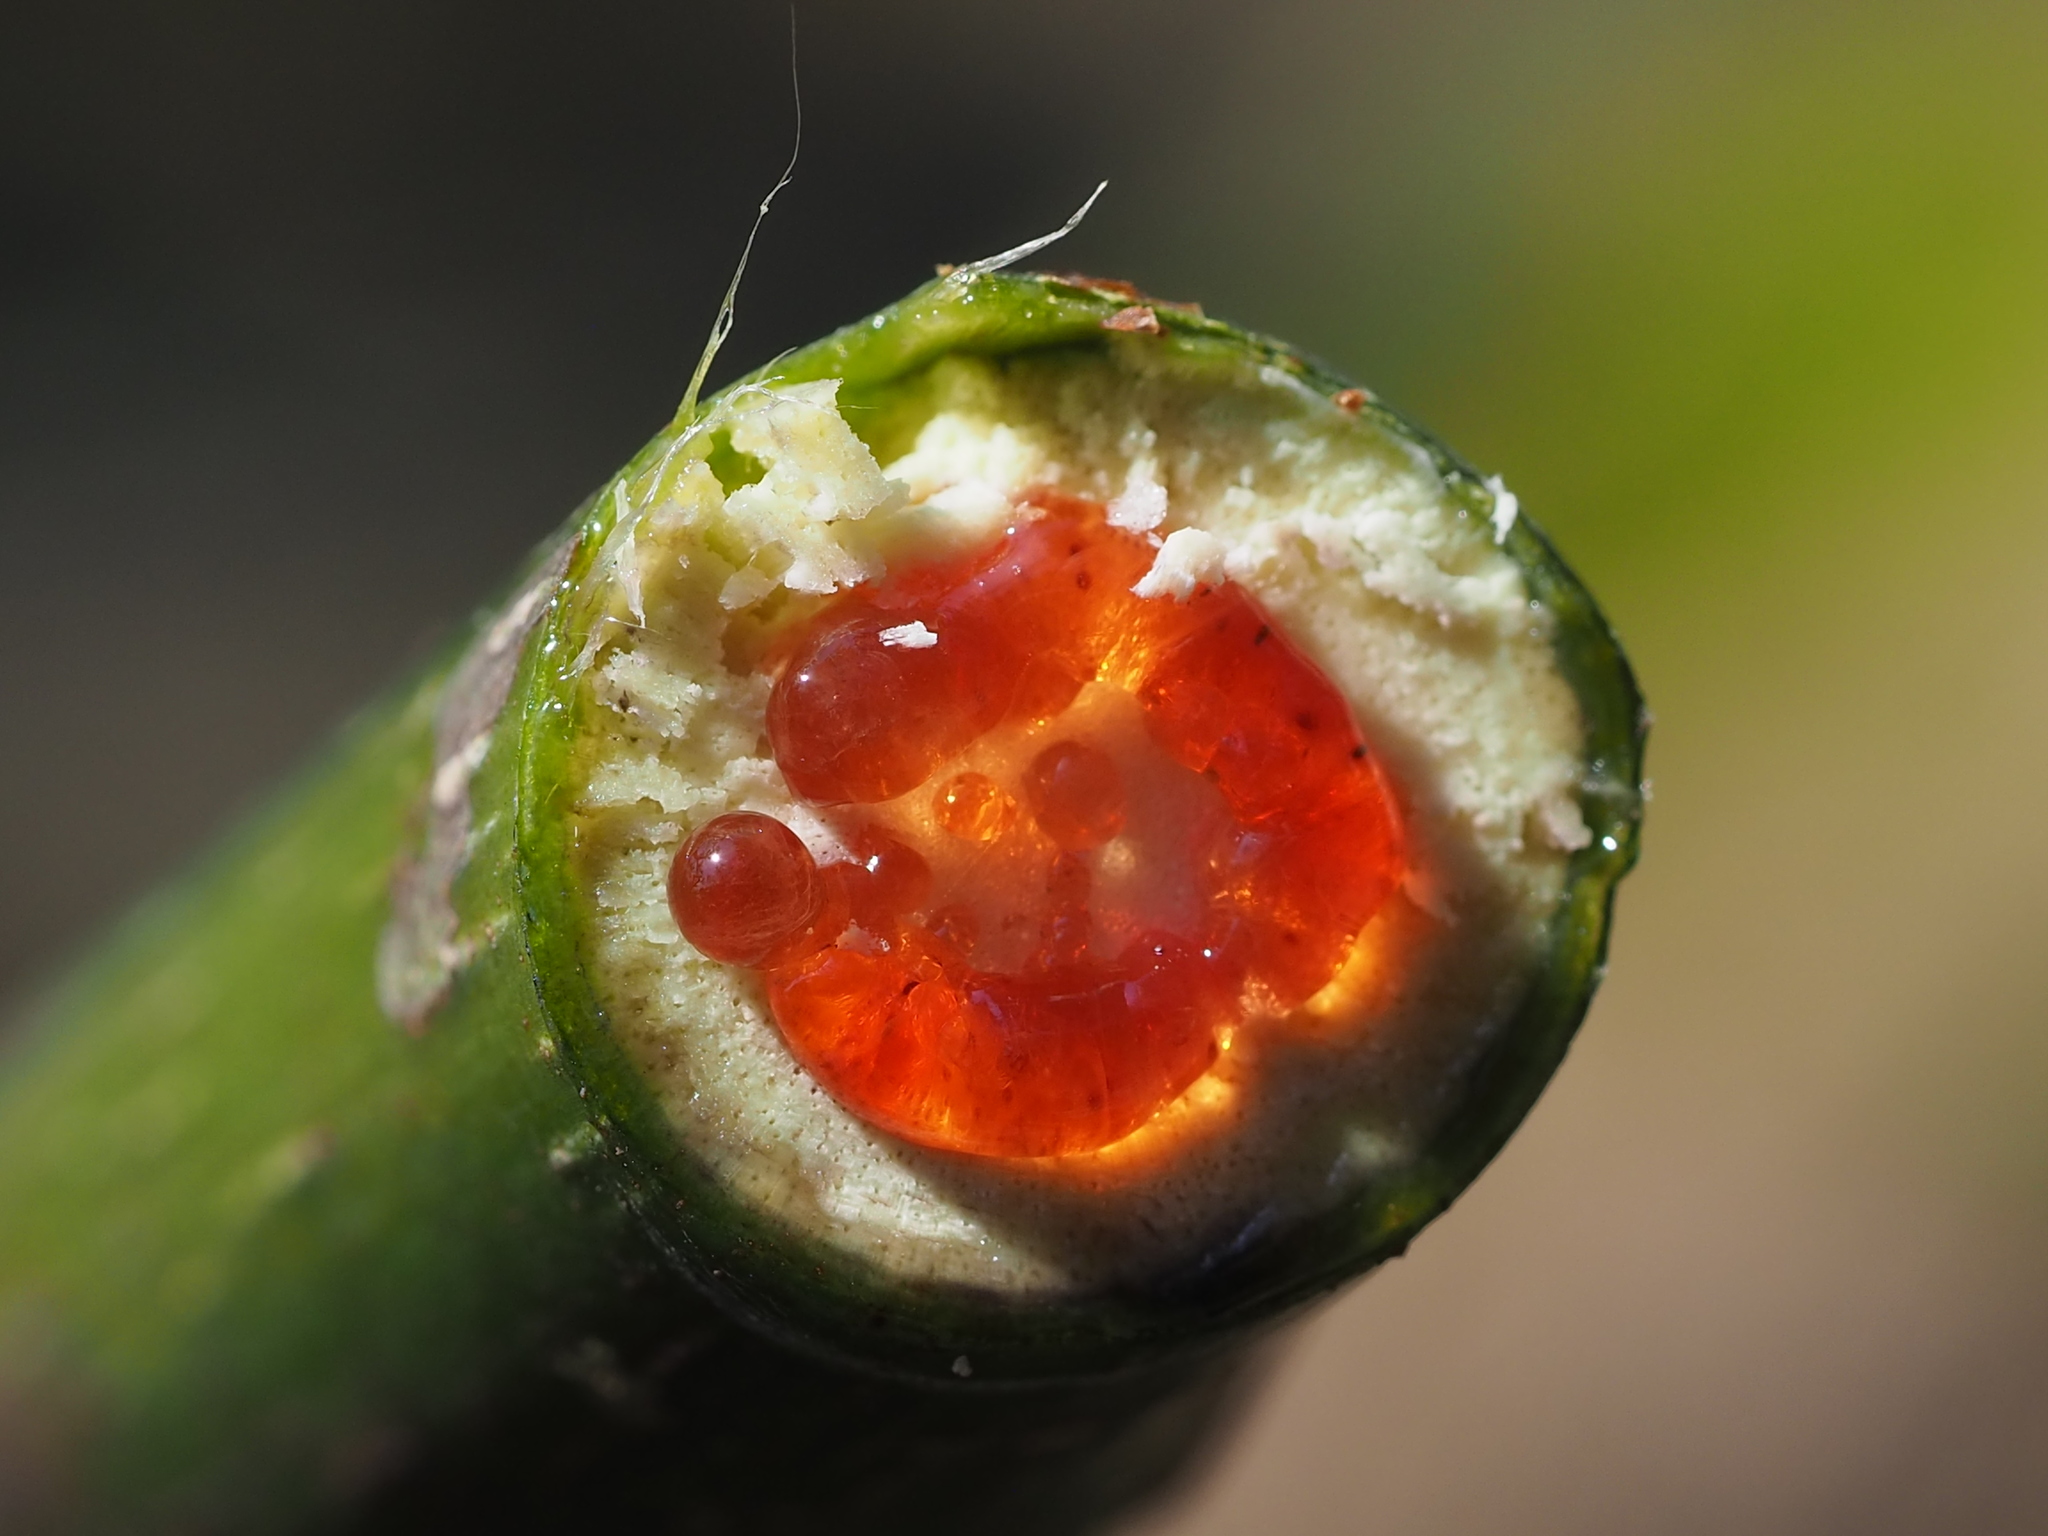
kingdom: Plantae
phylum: Tracheophyta
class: Magnoliopsida
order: Malpighiales
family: Euphorbiaceae
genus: Macaranga
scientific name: Macaranga tanarius
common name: Parasol leaf tree
